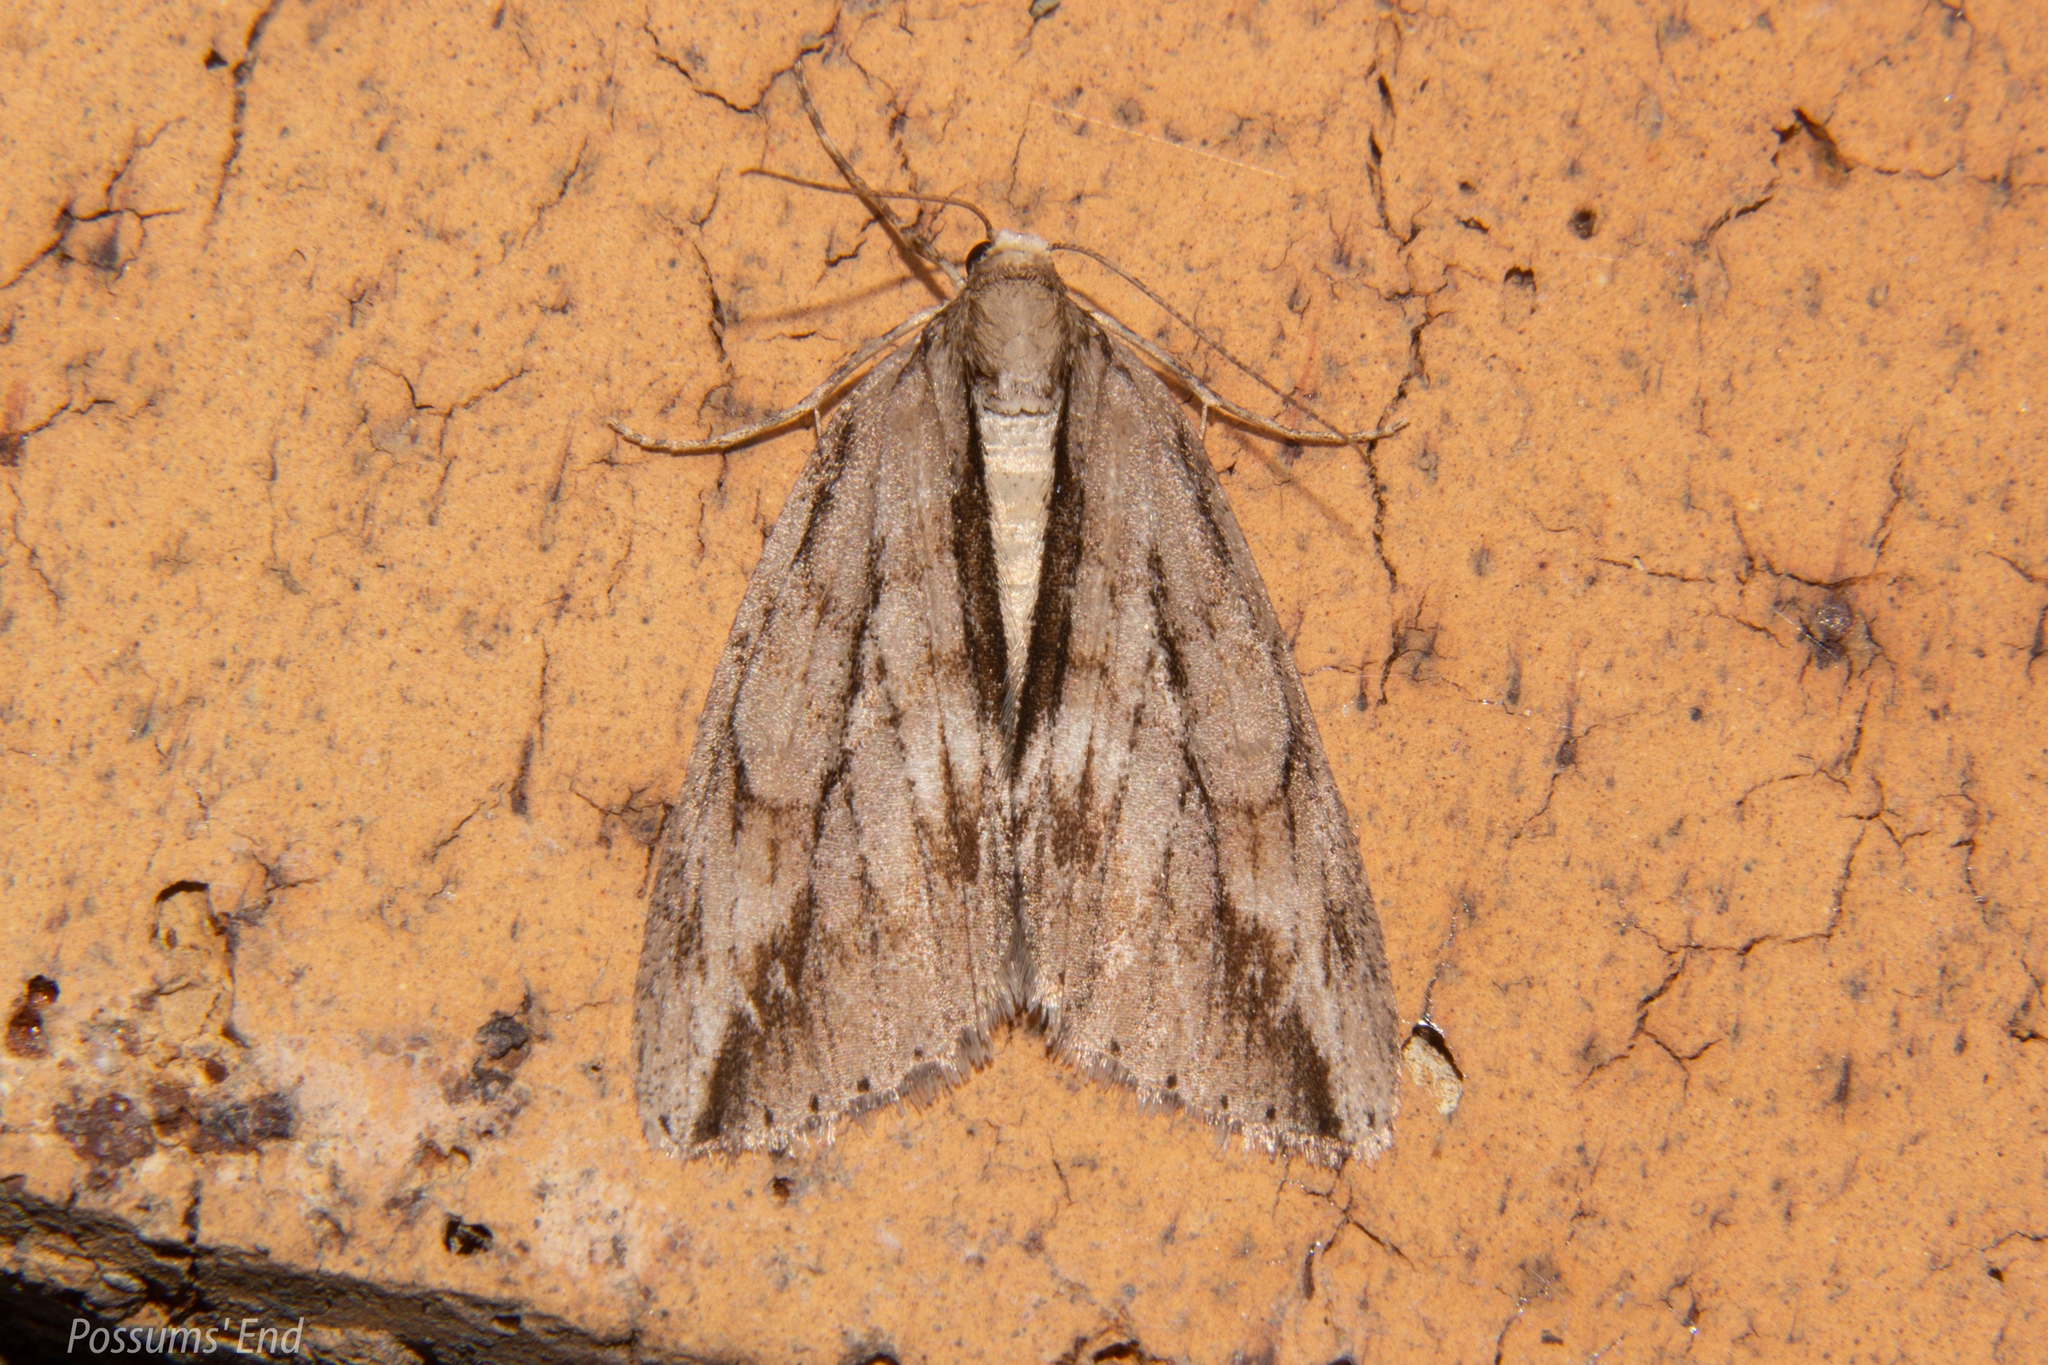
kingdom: Animalia
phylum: Arthropoda
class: Insecta
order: Lepidoptera
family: Geometridae
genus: Pseudocoremia
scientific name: Pseudocoremia lupinata
